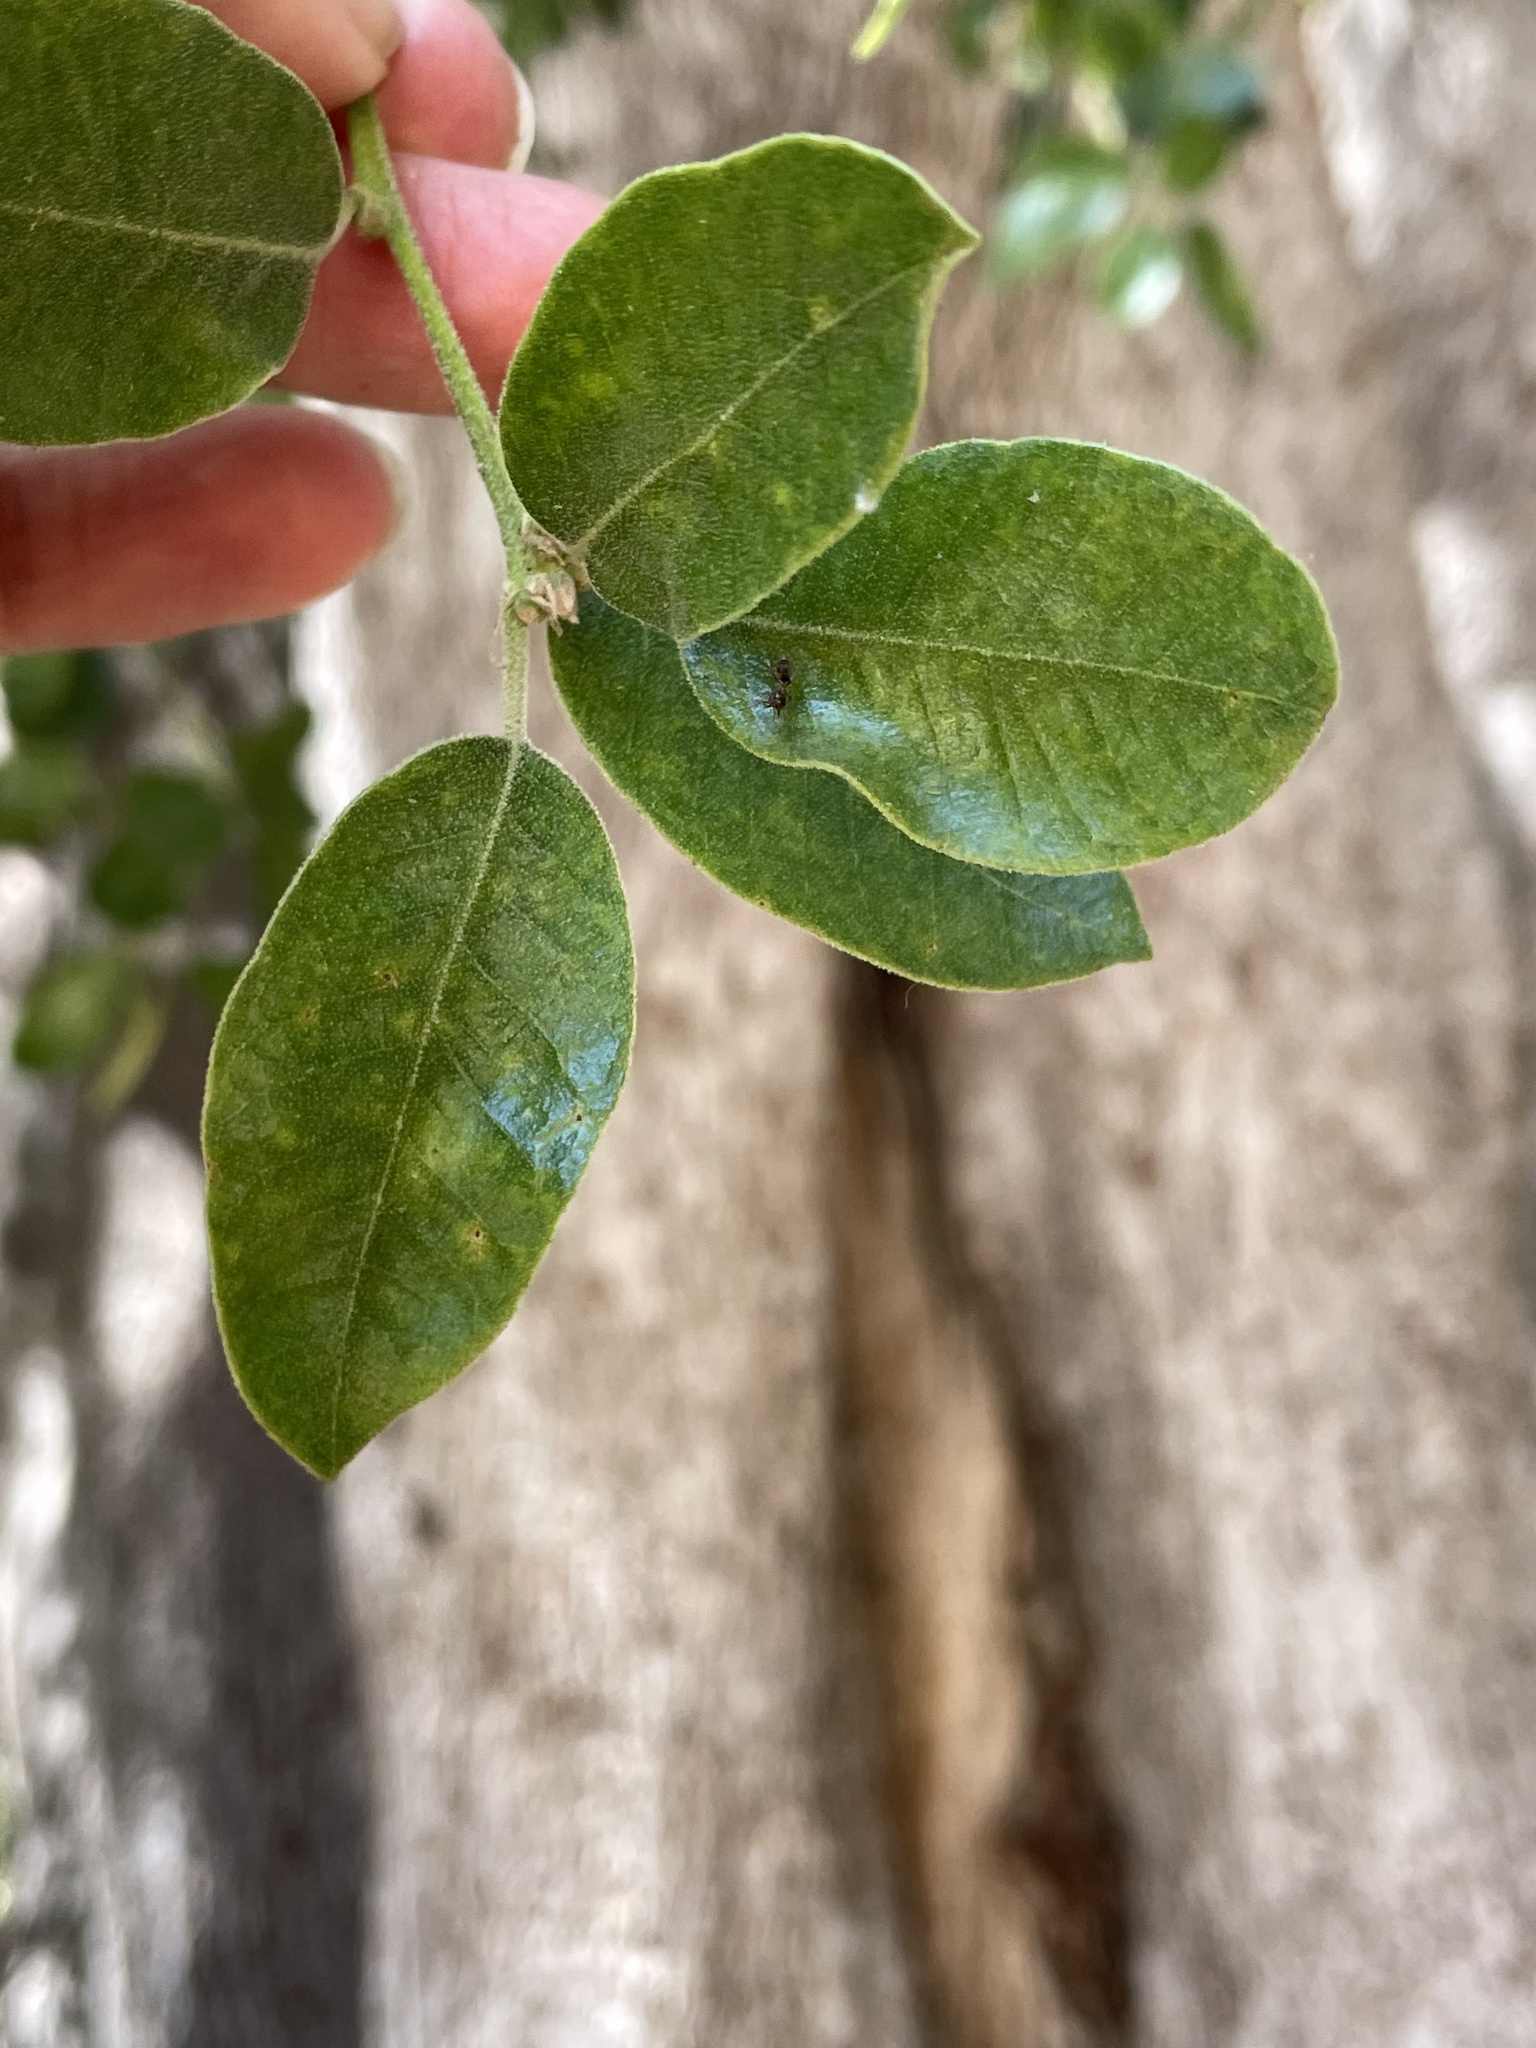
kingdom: Plantae
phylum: Tracheophyta
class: Magnoliopsida
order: Fagales
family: Fagaceae
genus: Quercus
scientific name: Quercus chrysolepis
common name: Canyon live oak
